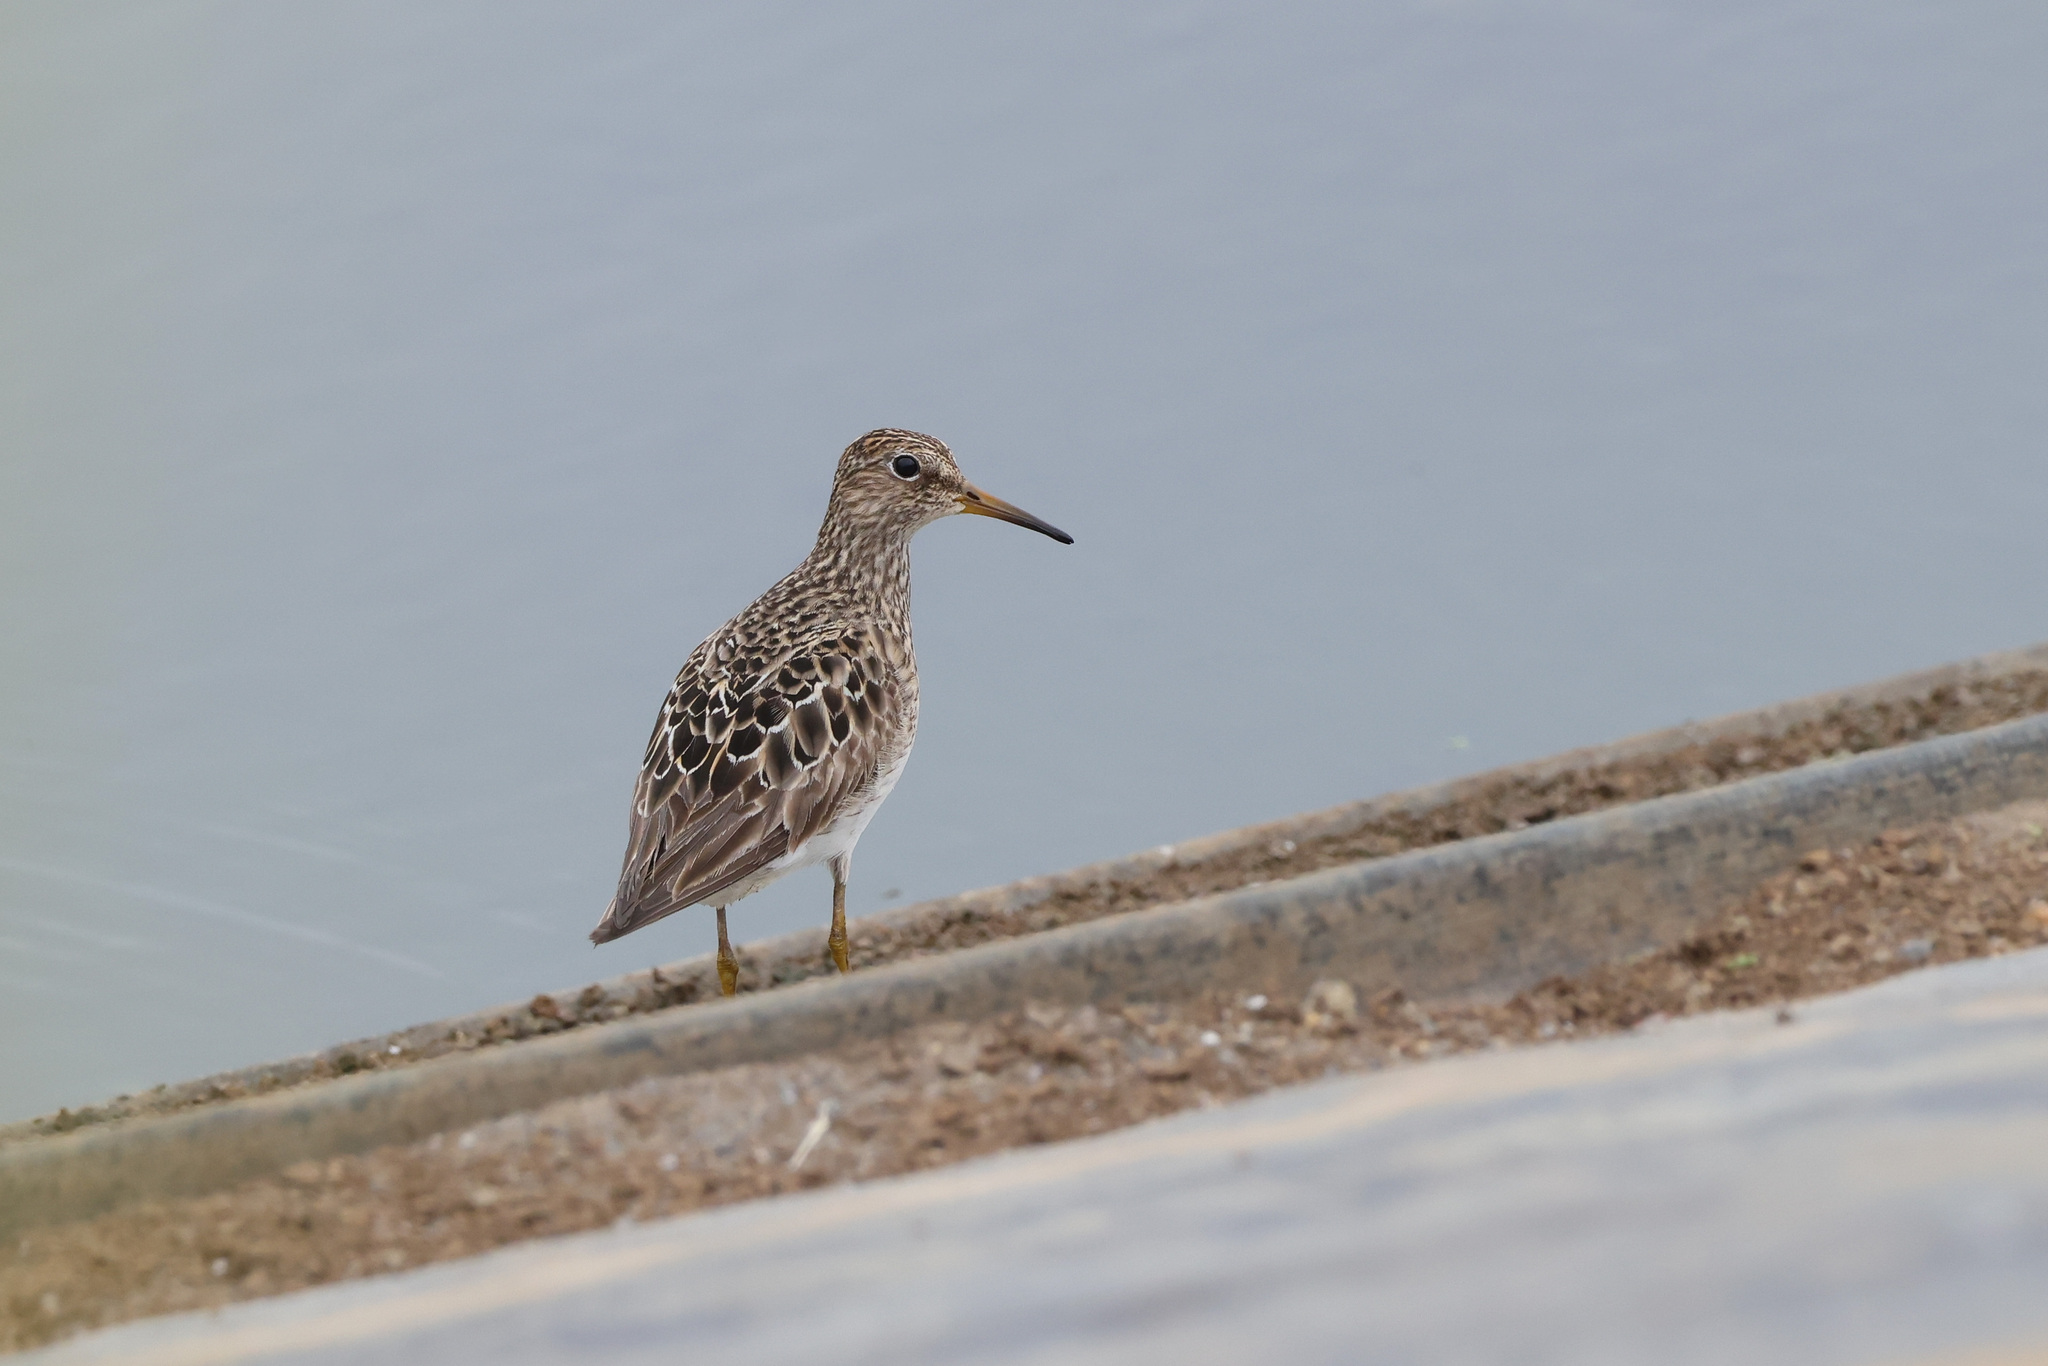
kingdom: Animalia
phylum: Chordata
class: Aves
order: Charadriiformes
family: Scolopacidae
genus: Calidris
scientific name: Calidris melanotos
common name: Pectoral sandpiper
